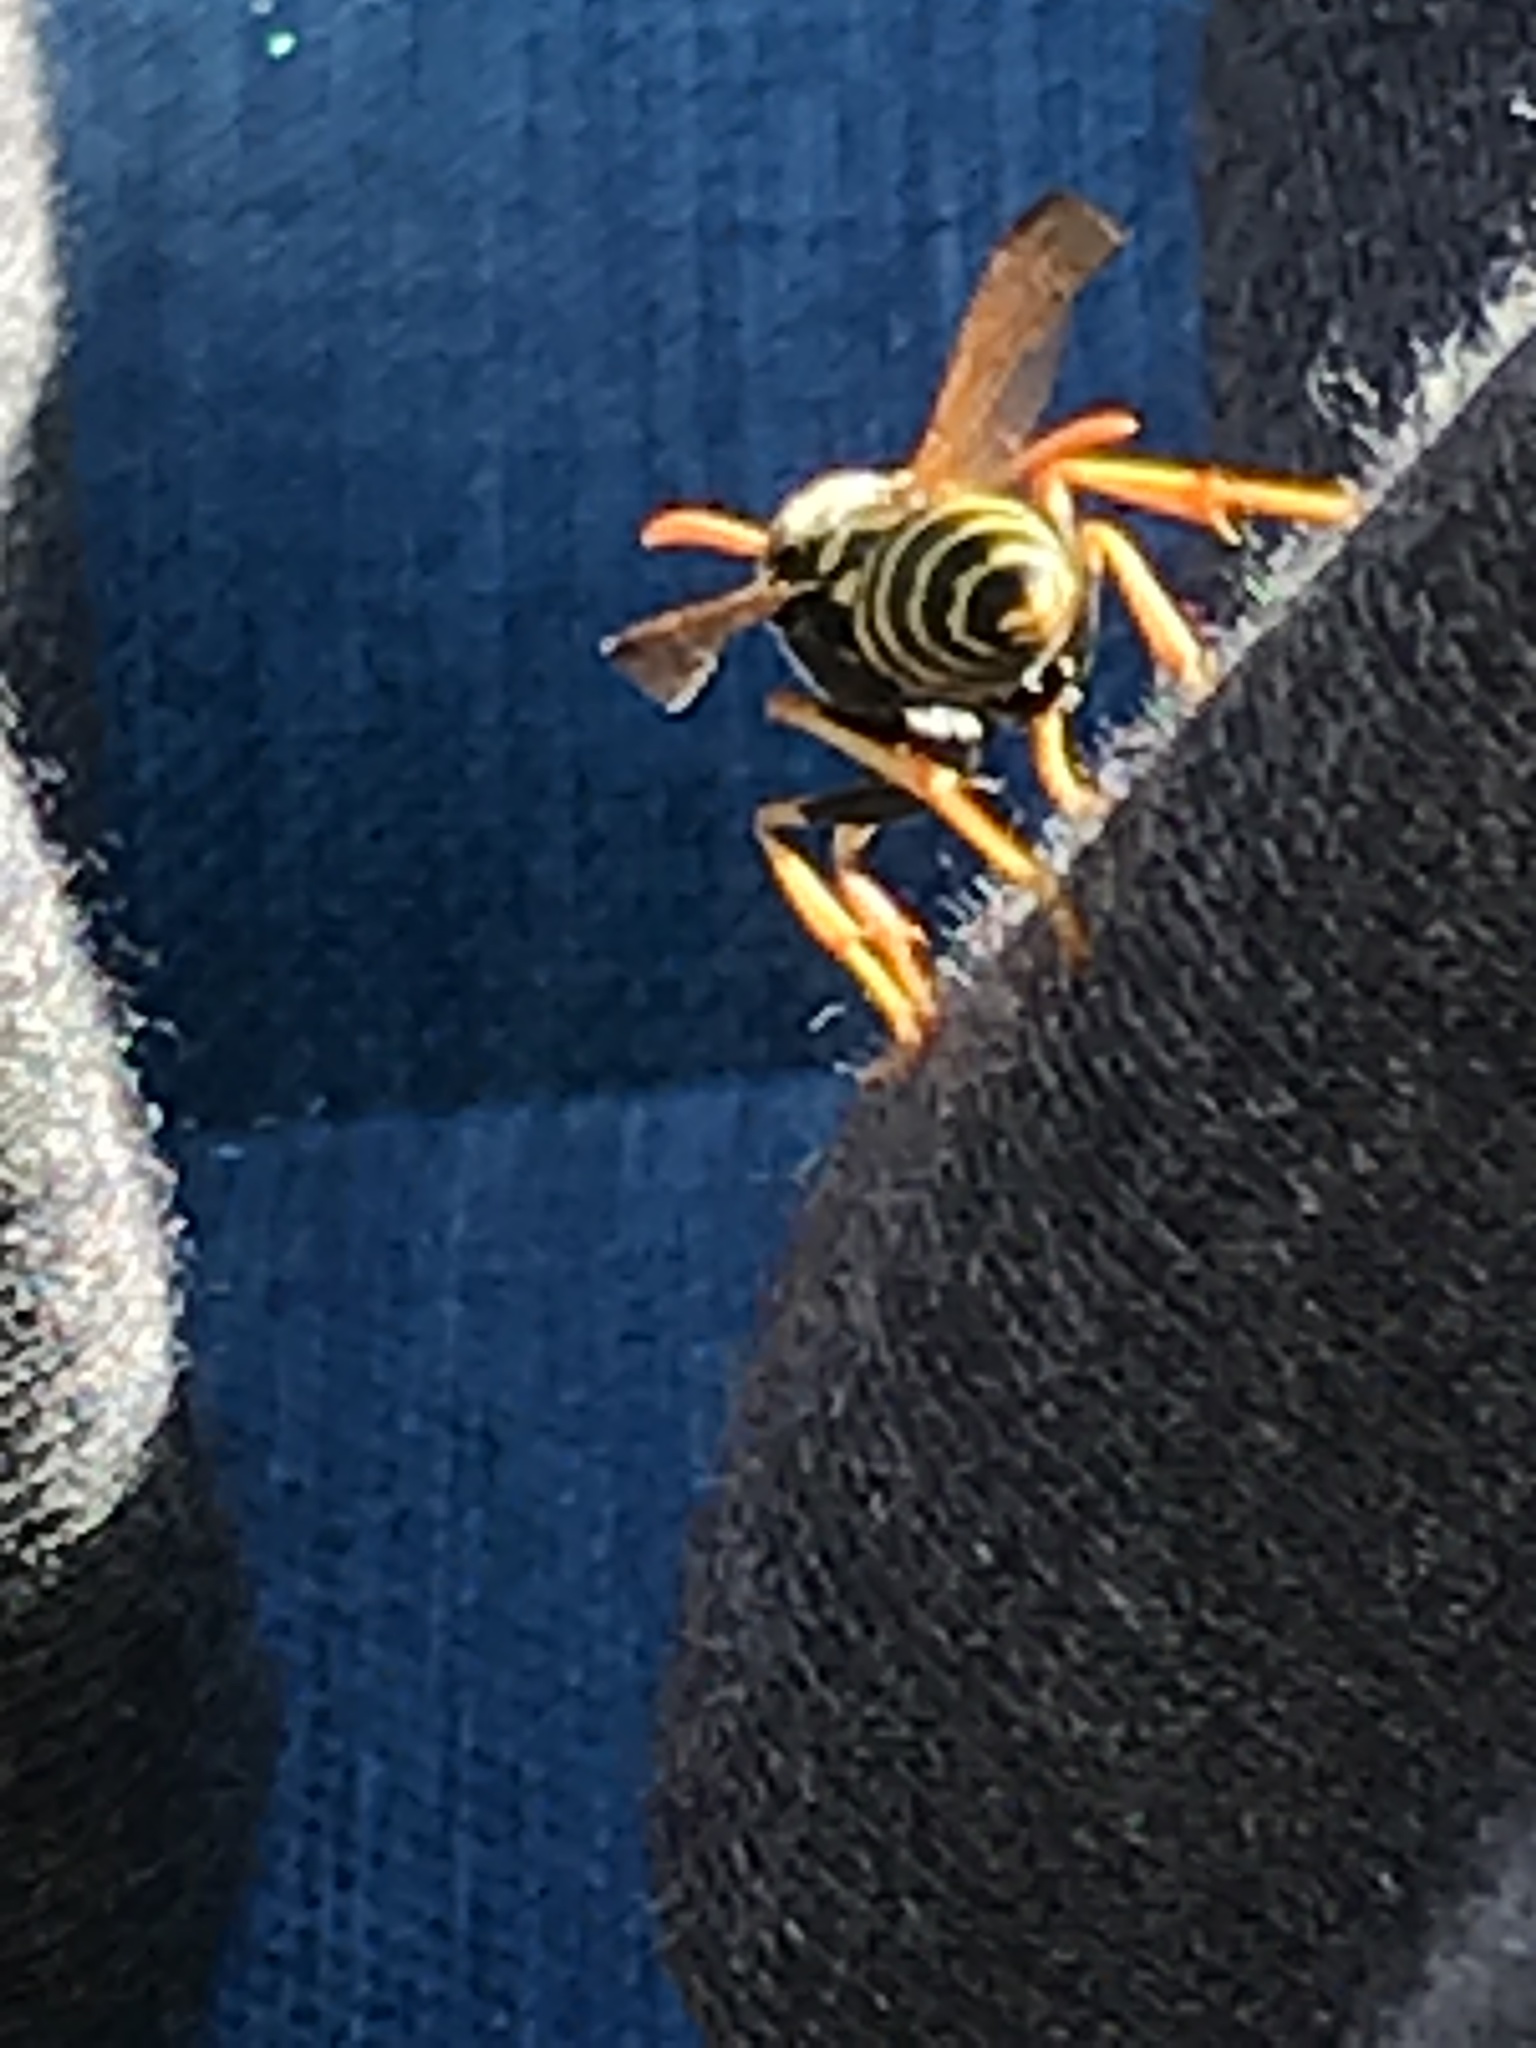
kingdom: Animalia
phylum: Arthropoda
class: Insecta
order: Hymenoptera
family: Eumenidae
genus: Polistes
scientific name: Polistes dominula
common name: Paper wasp
